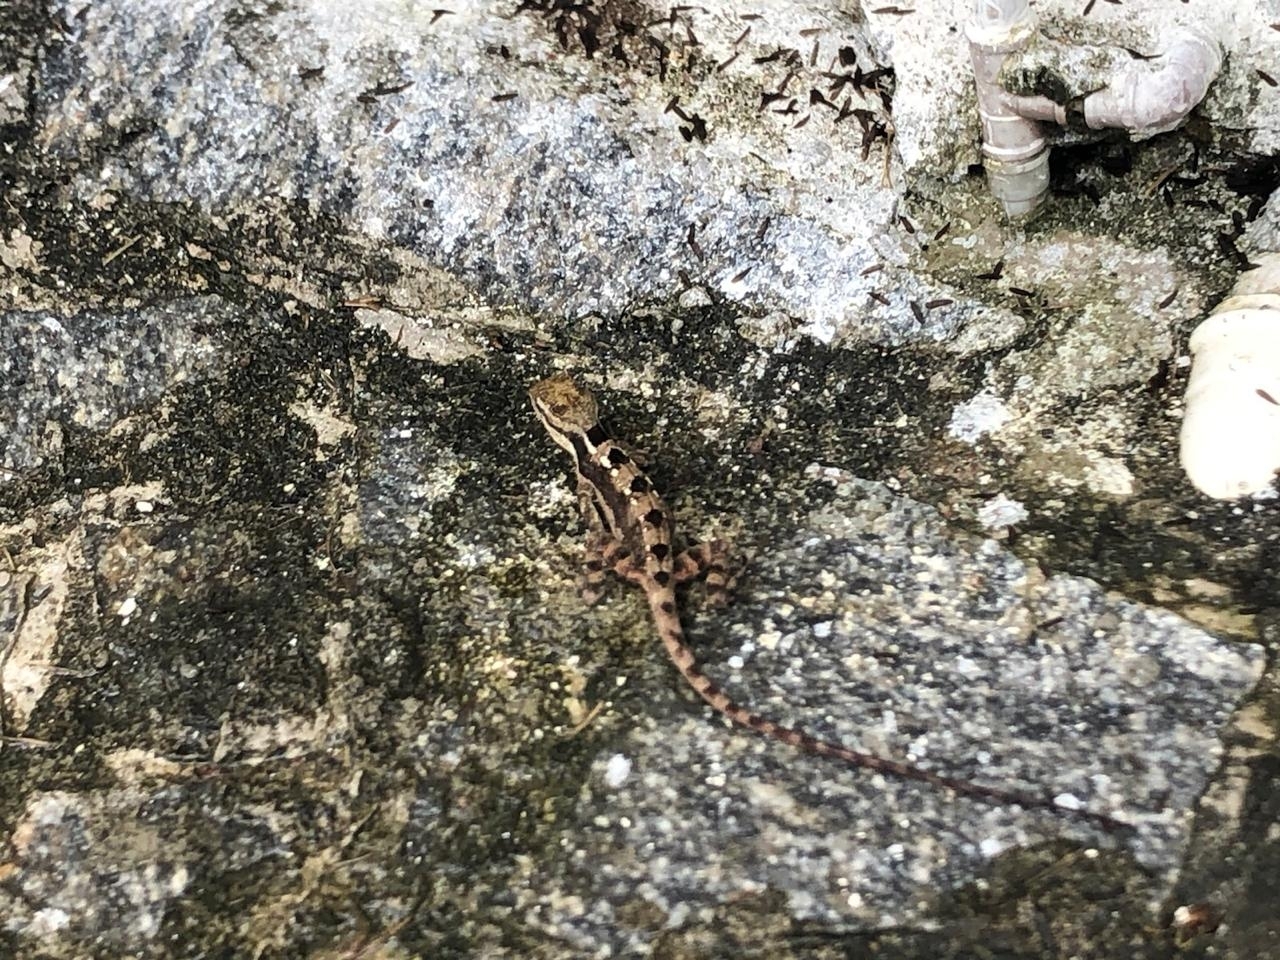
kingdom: Animalia
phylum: Chordata
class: Squamata
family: Leiosauridae
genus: Enyalius
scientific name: Enyalius bibronii
